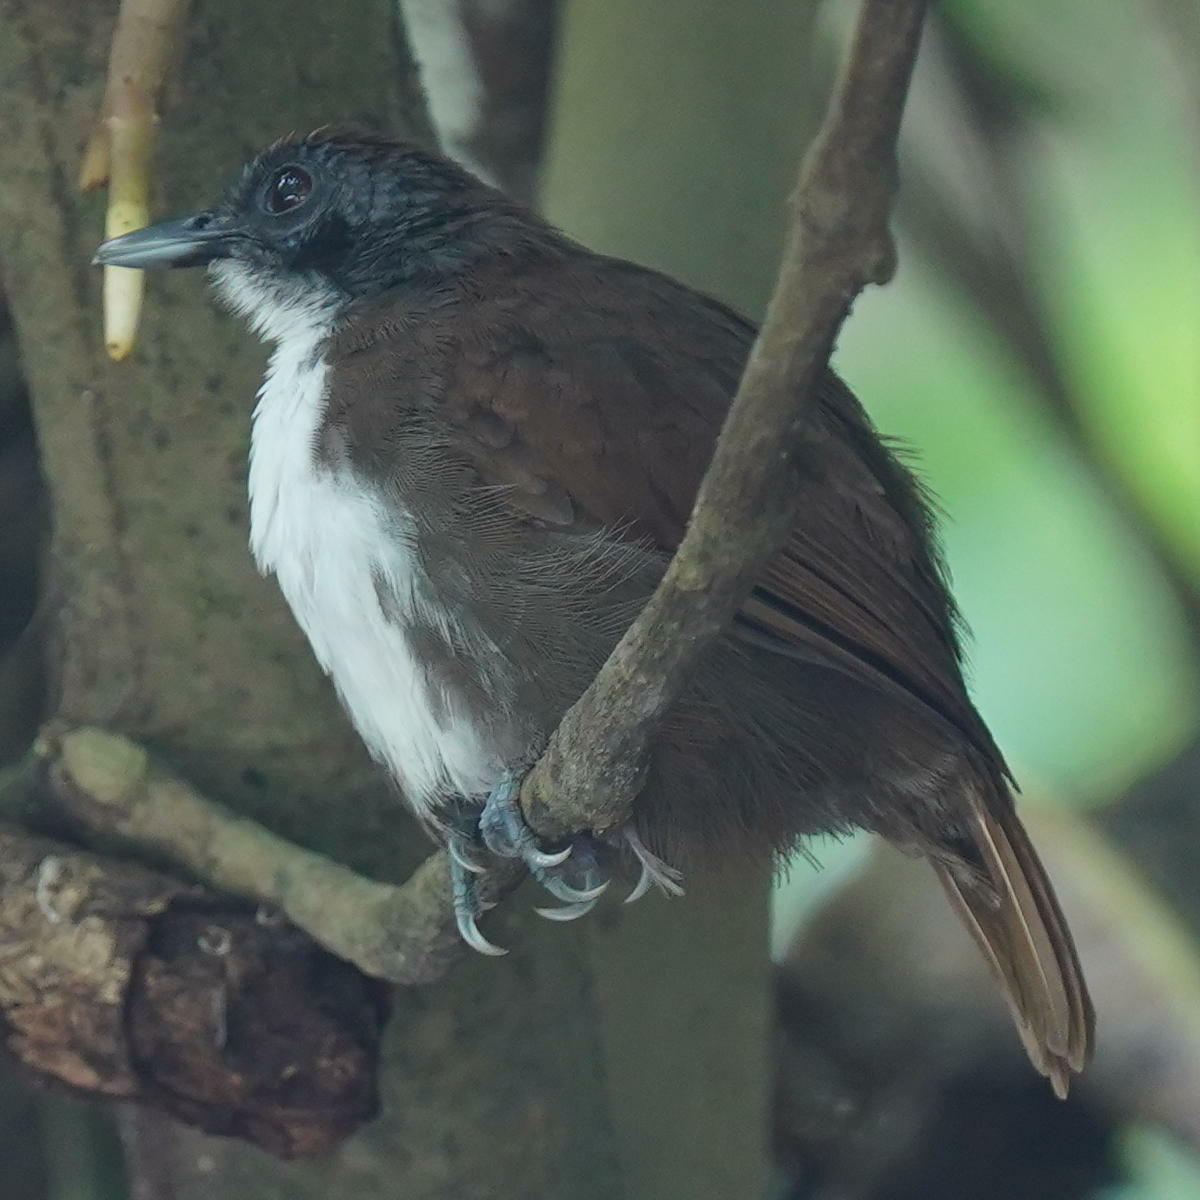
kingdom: Animalia
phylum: Chordata
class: Aves
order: Passeriformes
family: Thamnophilidae
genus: Gymnopithys
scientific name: Gymnopithys leucaspis
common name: White-cheeked antbird
